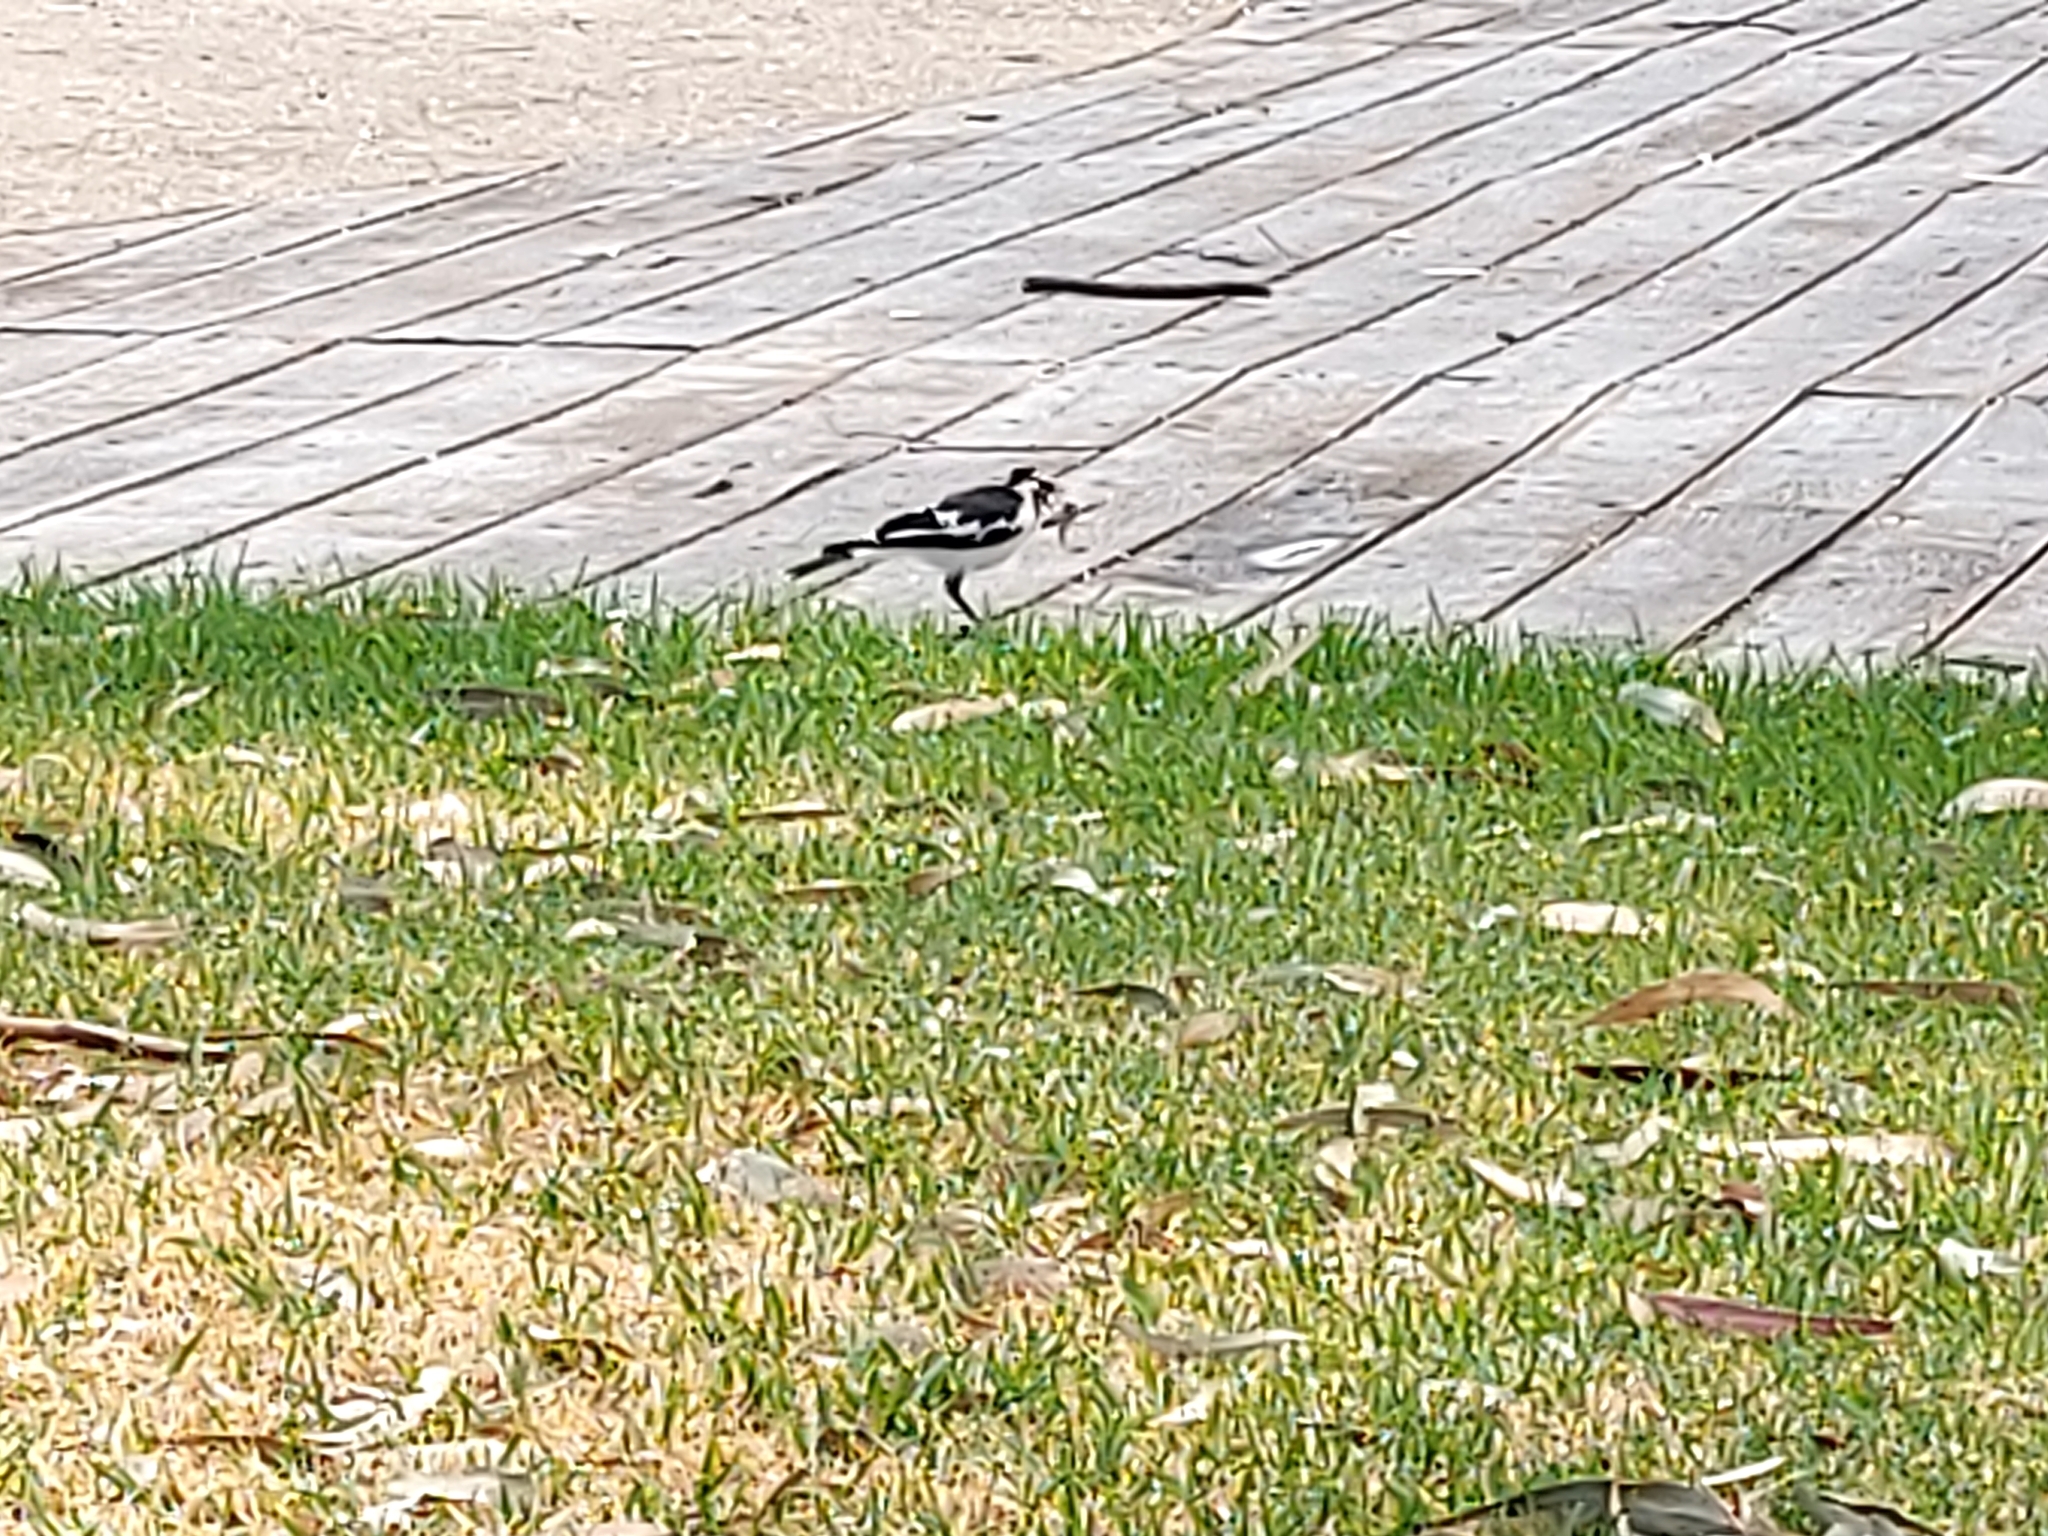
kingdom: Animalia
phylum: Chordata
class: Aves
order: Passeriformes
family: Monarchidae
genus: Grallina
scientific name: Grallina cyanoleuca
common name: Magpie-lark
